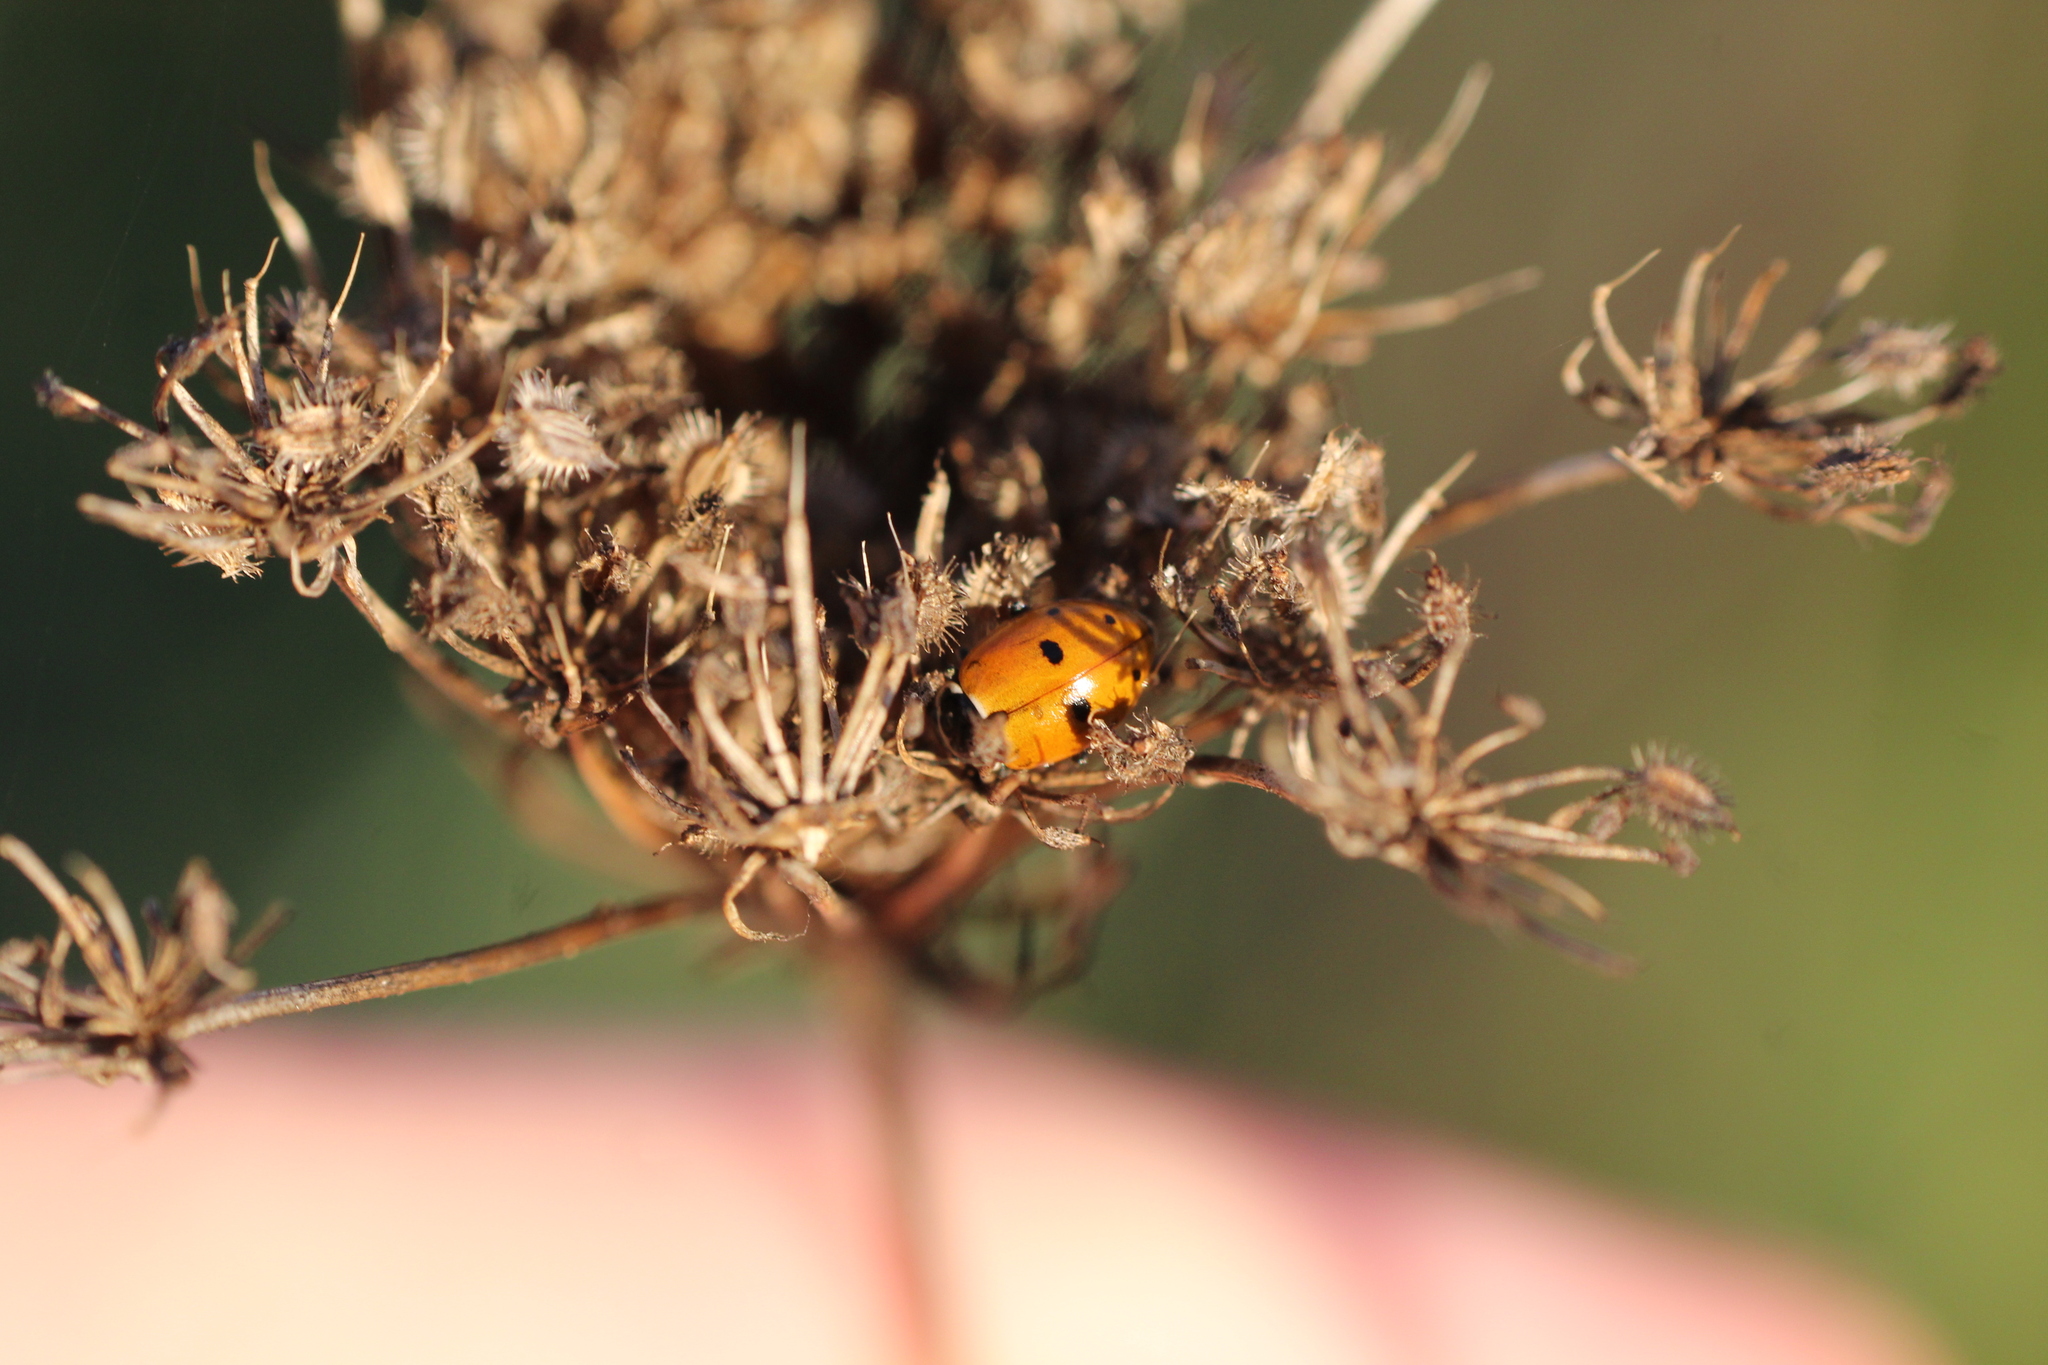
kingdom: Animalia
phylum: Arthropoda
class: Insecta
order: Coleoptera
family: Coccinellidae
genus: Hippodamia
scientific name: Hippodamia variegata
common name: Ladybird beetle
